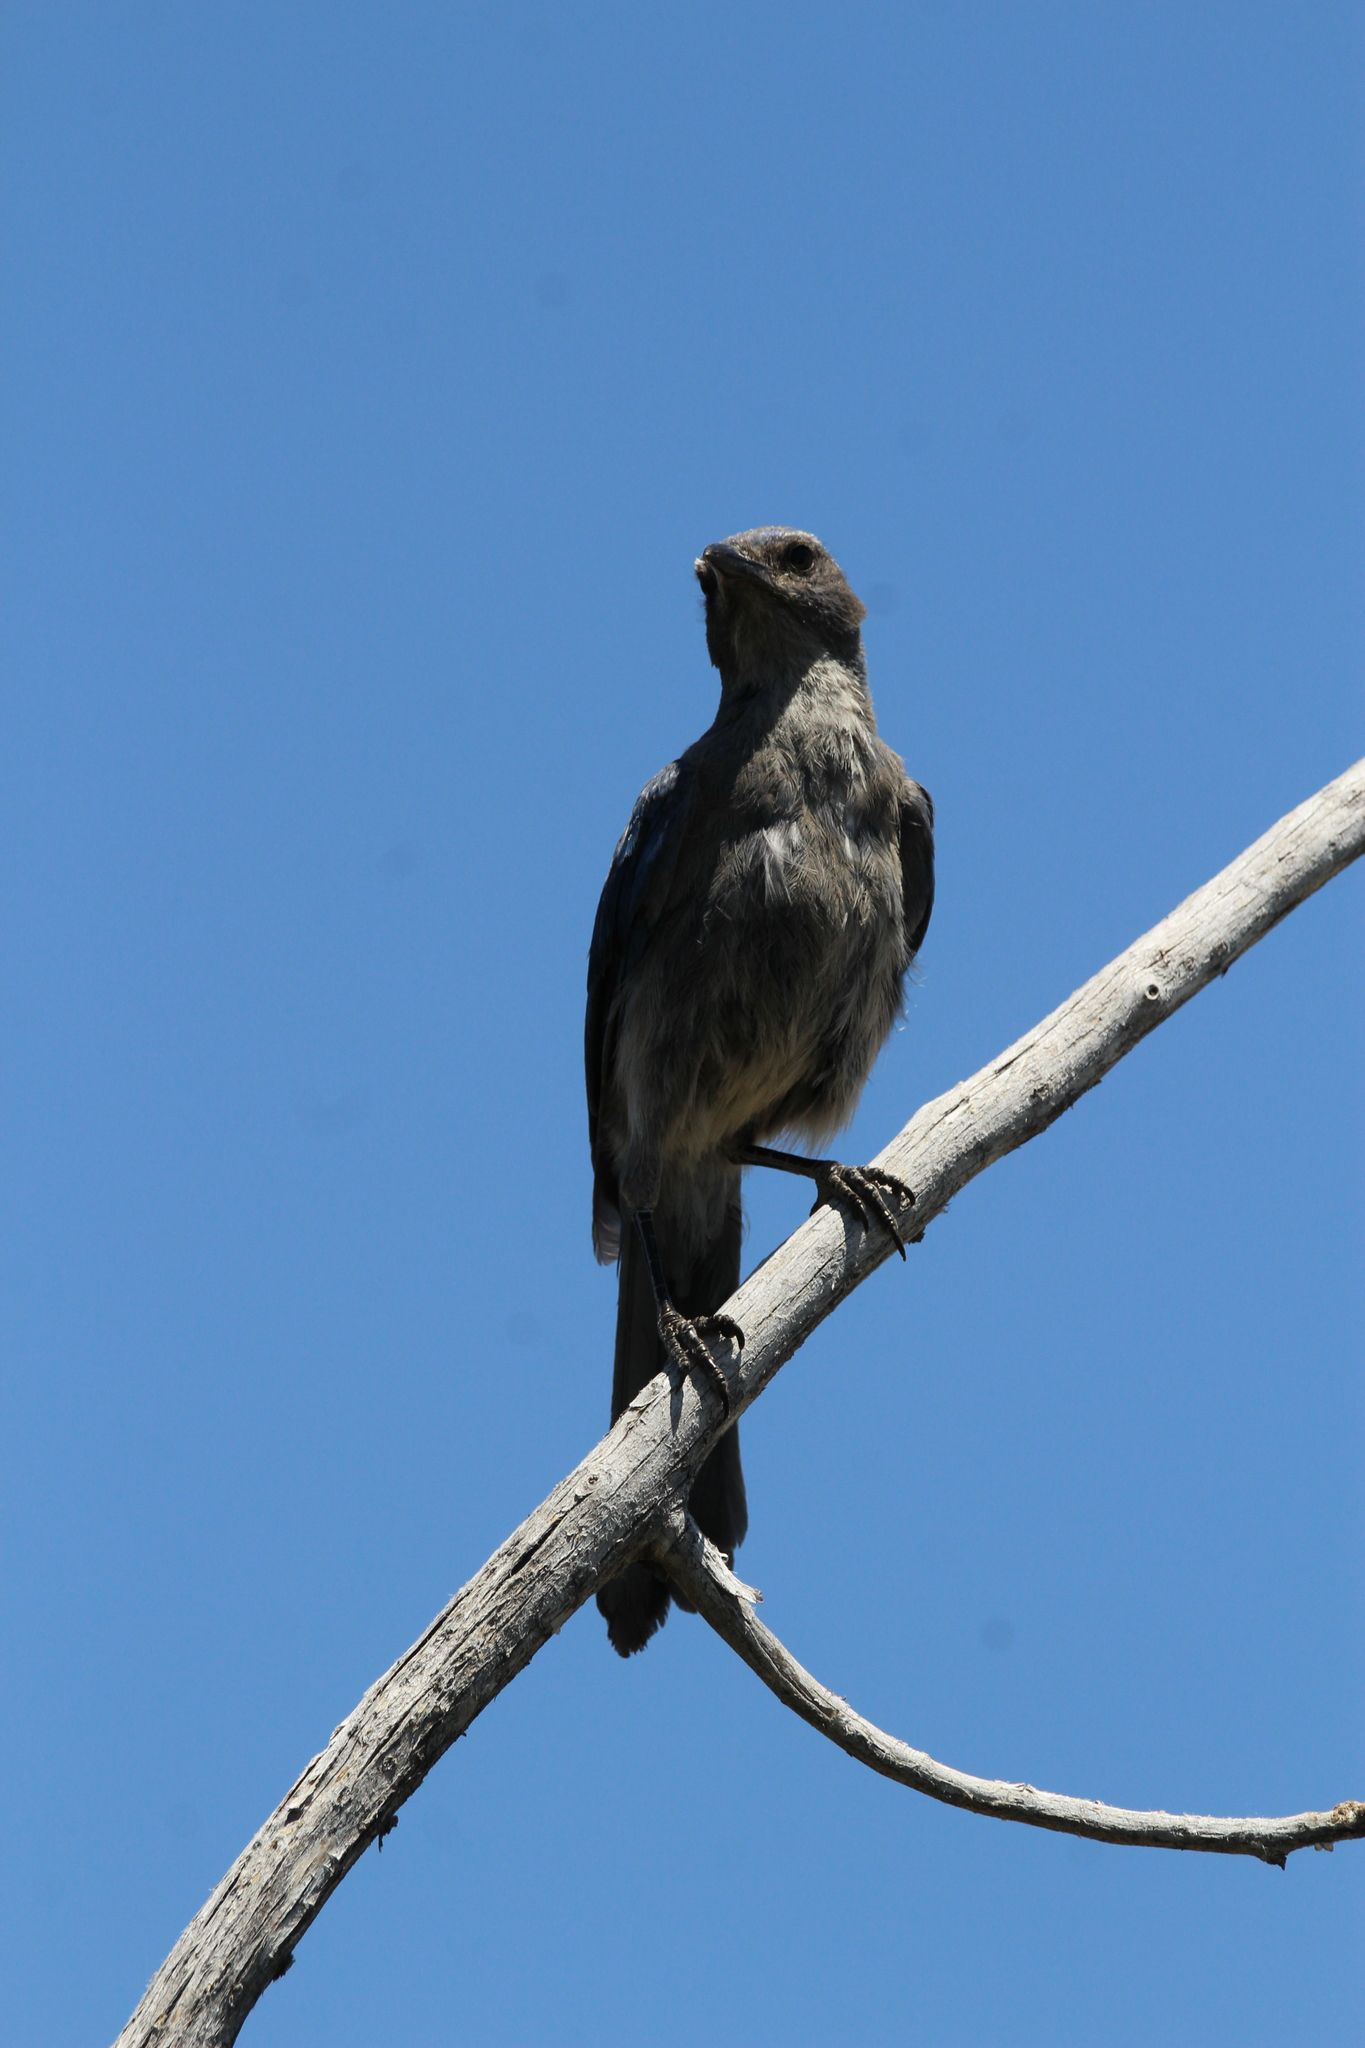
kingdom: Animalia
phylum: Chordata
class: Aves
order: Passeriformes
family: Corvidae
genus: Aphelocoma
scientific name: Aphelocoma woodhouseii
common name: Woodhouse's scrub-jay
